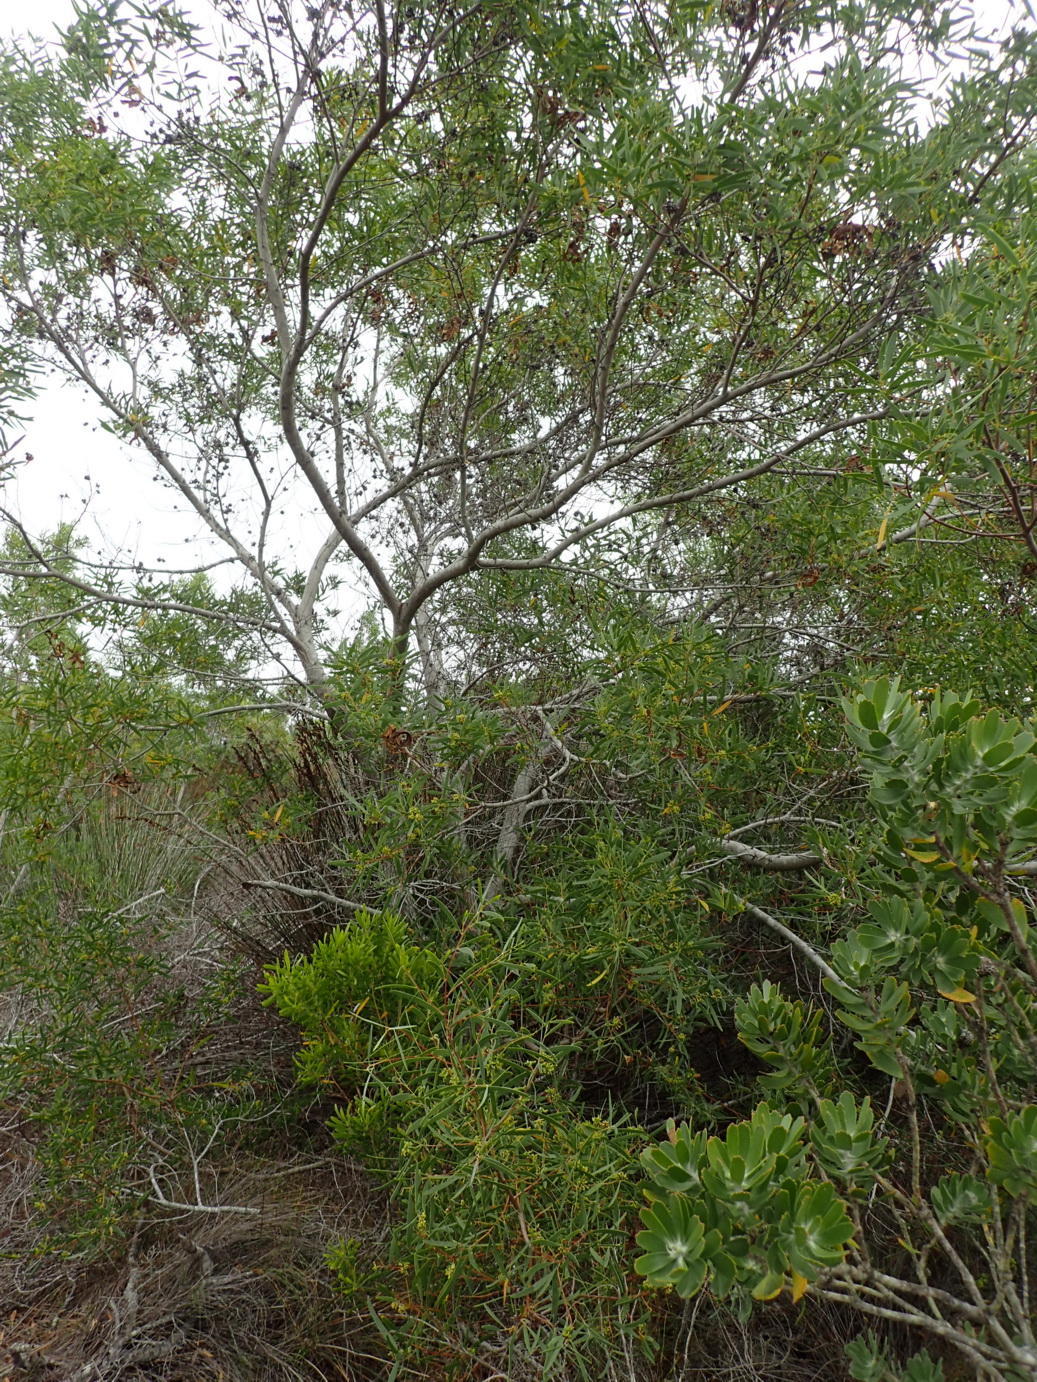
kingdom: Plantae
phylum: Tracheophyta
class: Magnoliopsida
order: Fabales
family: Fabaceae
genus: Acacia
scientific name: Acacia cyclops
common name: Coastal wattle
